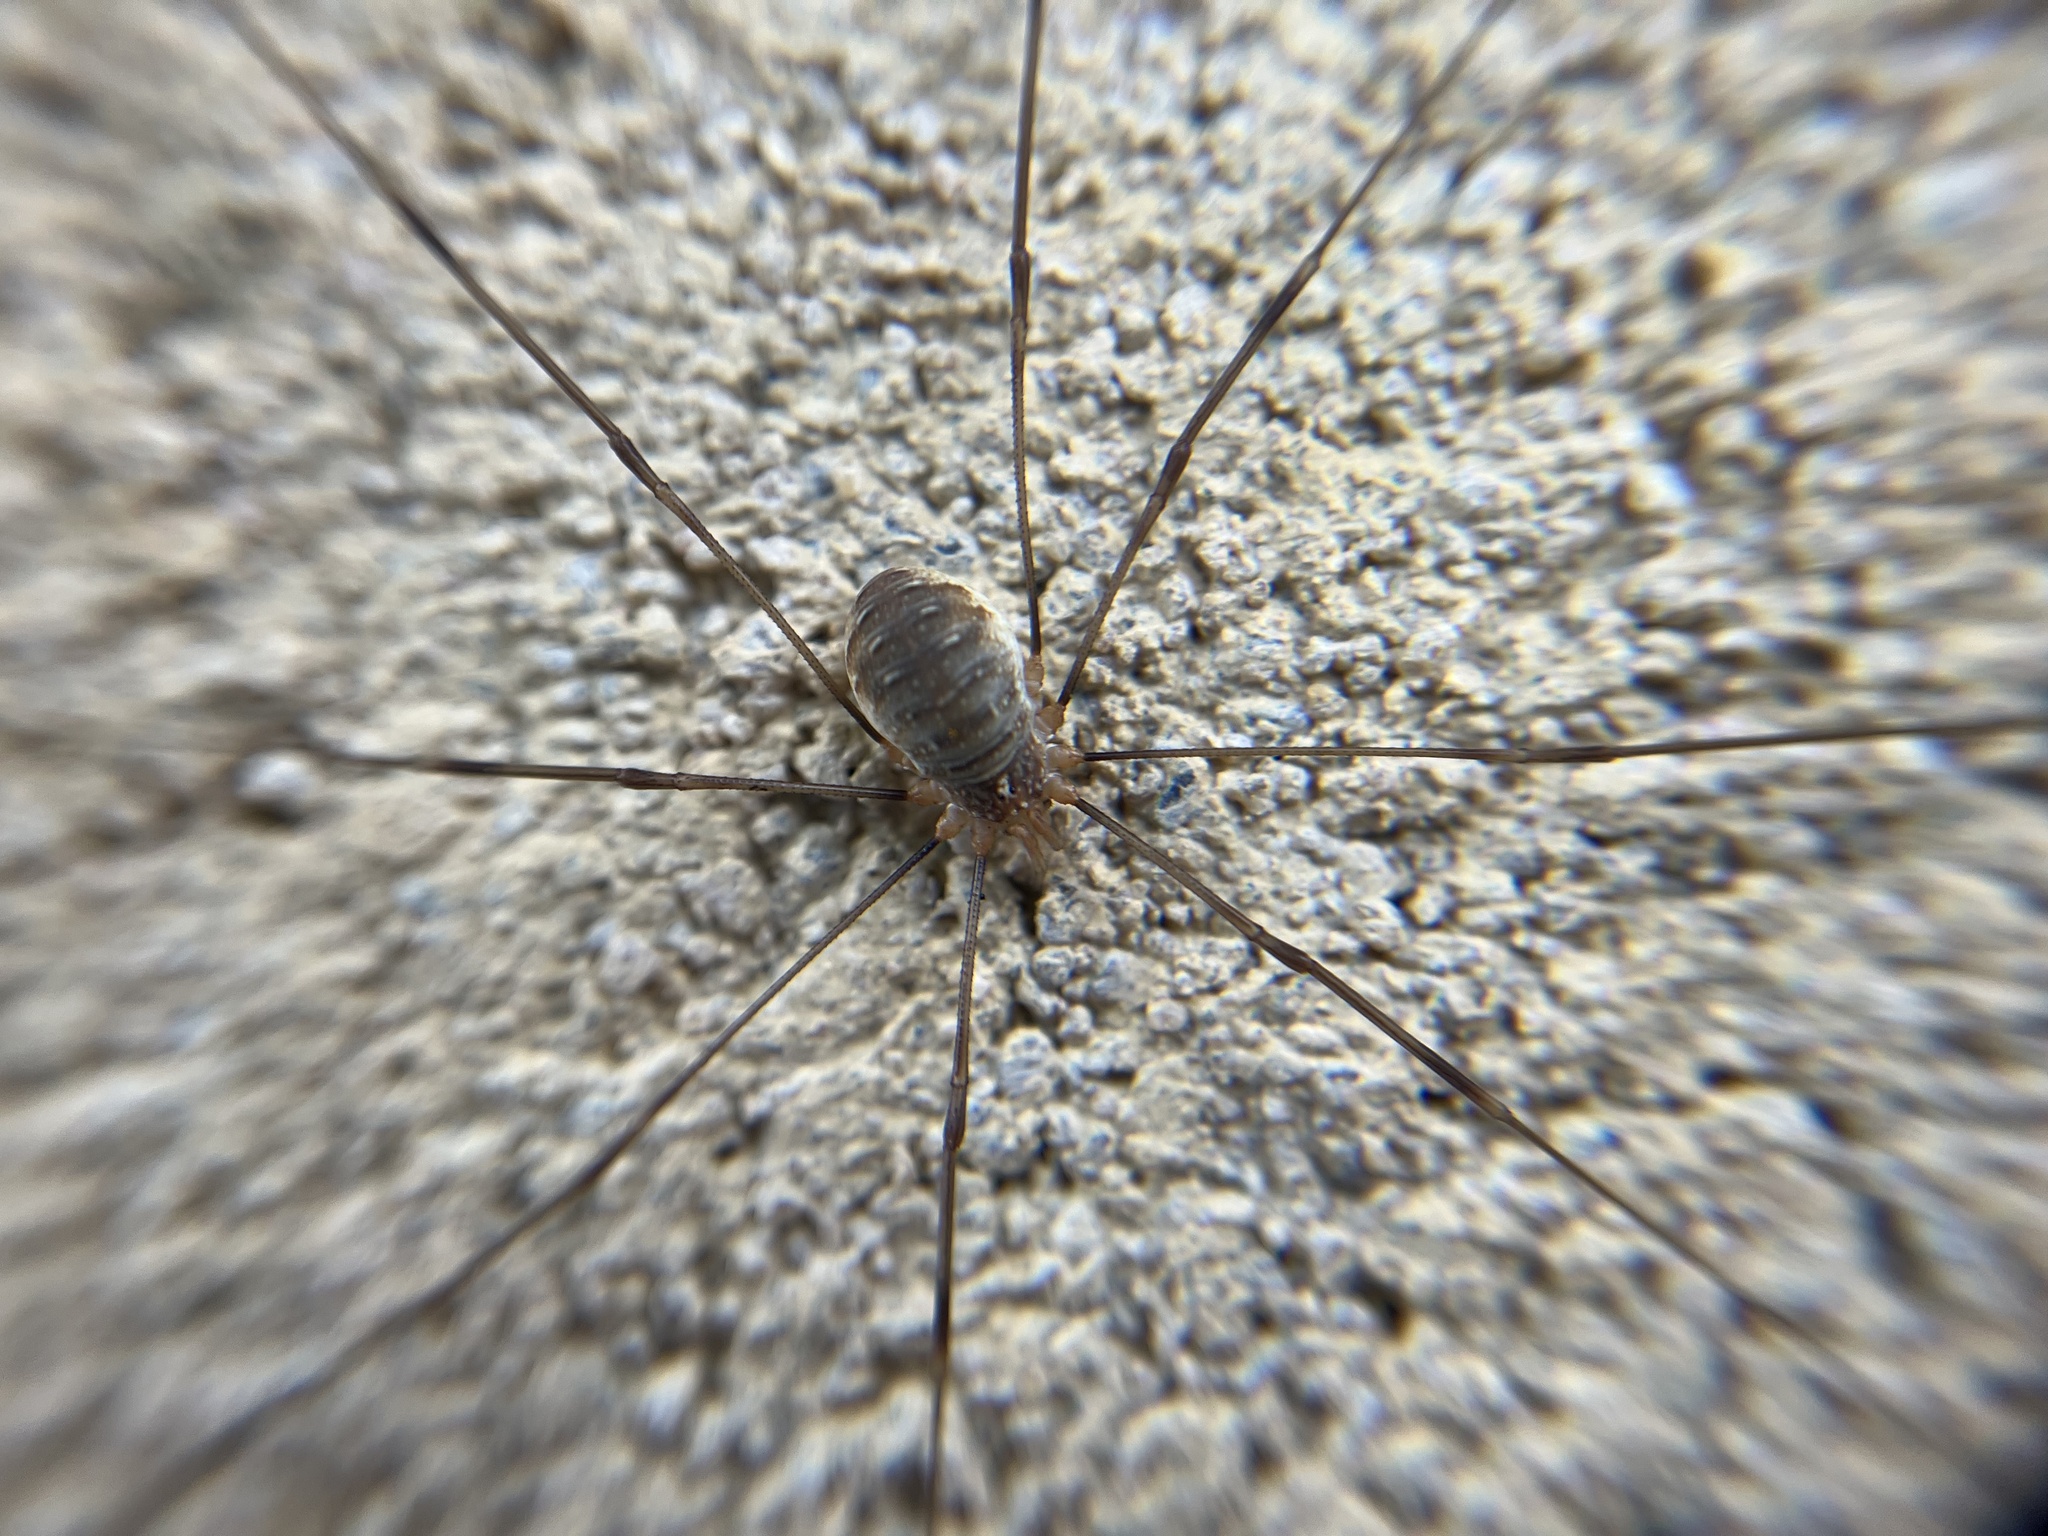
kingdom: Animalia
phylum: Arthropoda
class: Arachnida
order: Opiliones
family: Phalangiidae
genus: Opilio
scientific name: Opilio canestrinii
